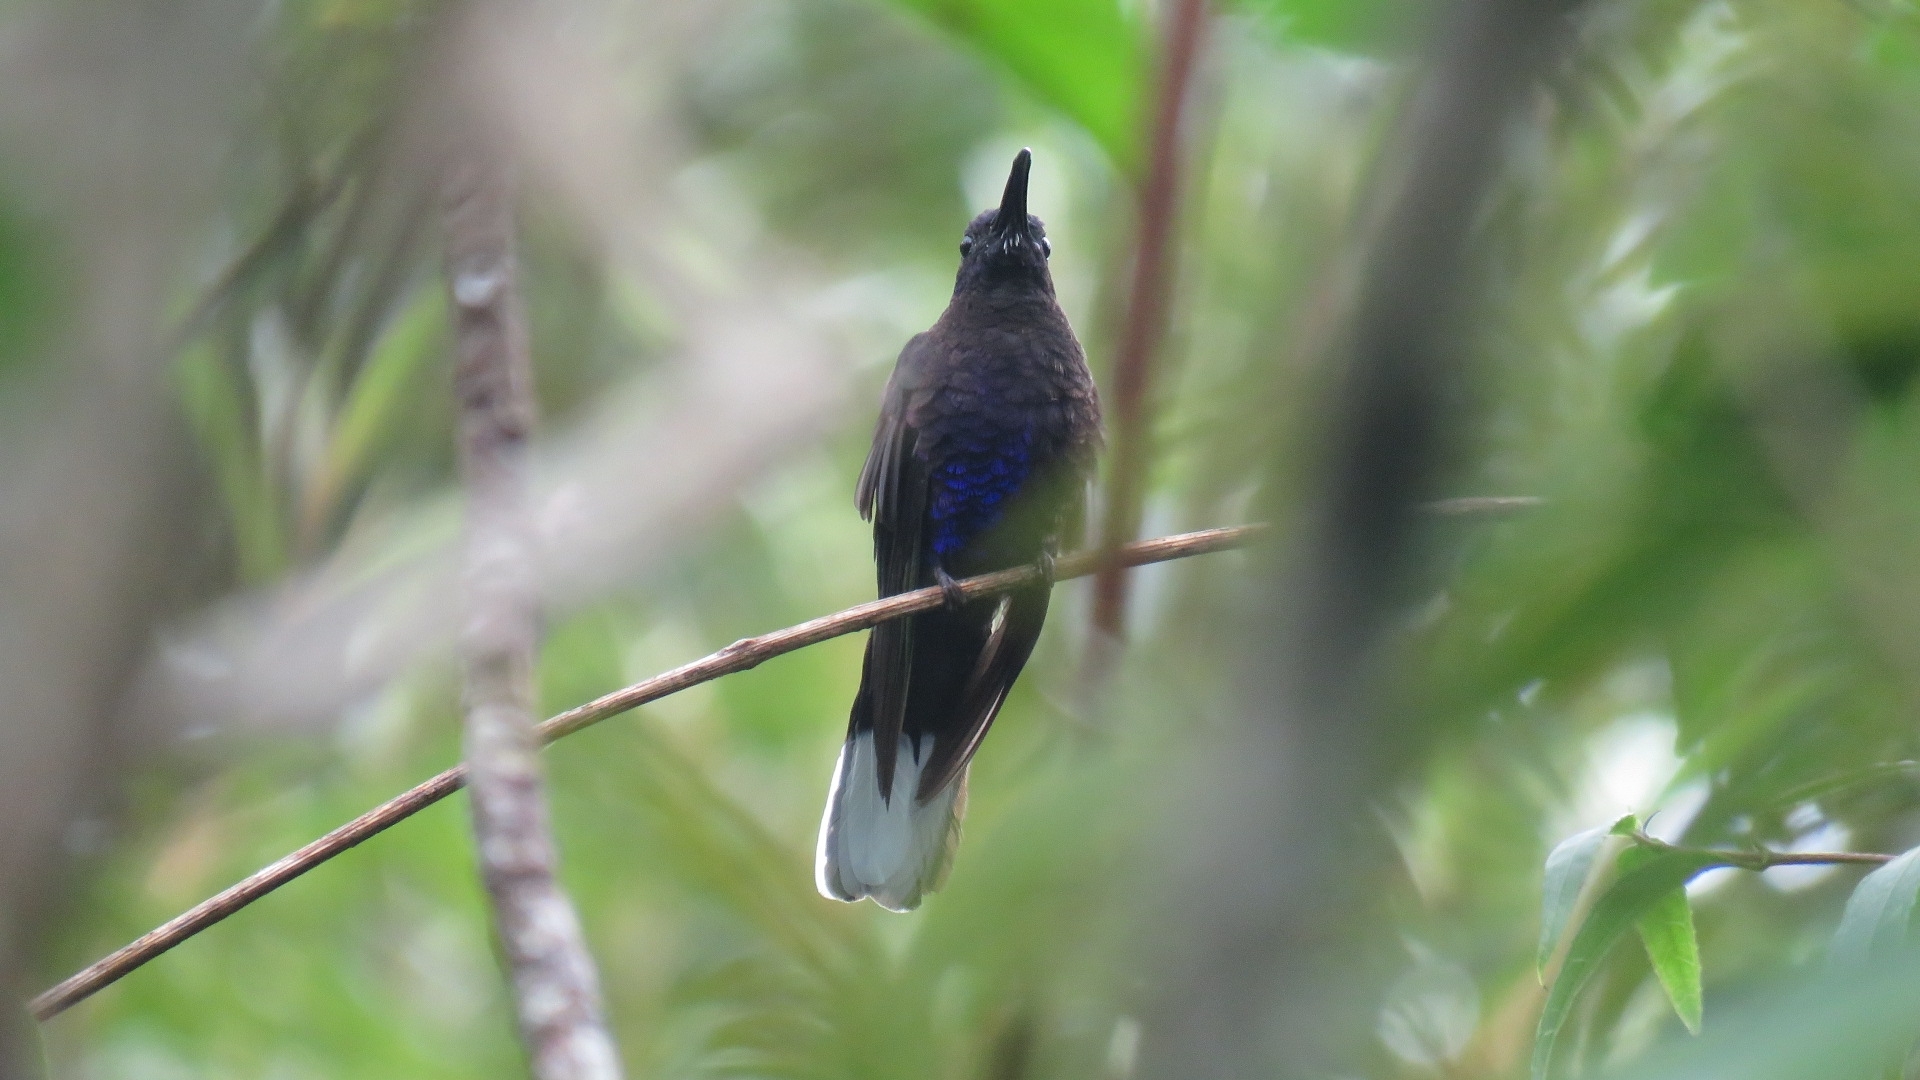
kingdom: Animalia
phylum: Chordata
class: Aves
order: Apodiformes
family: Trochilidae
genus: Campylopterus
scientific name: Campylopterus hemileucurus
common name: Violet sabrewing
